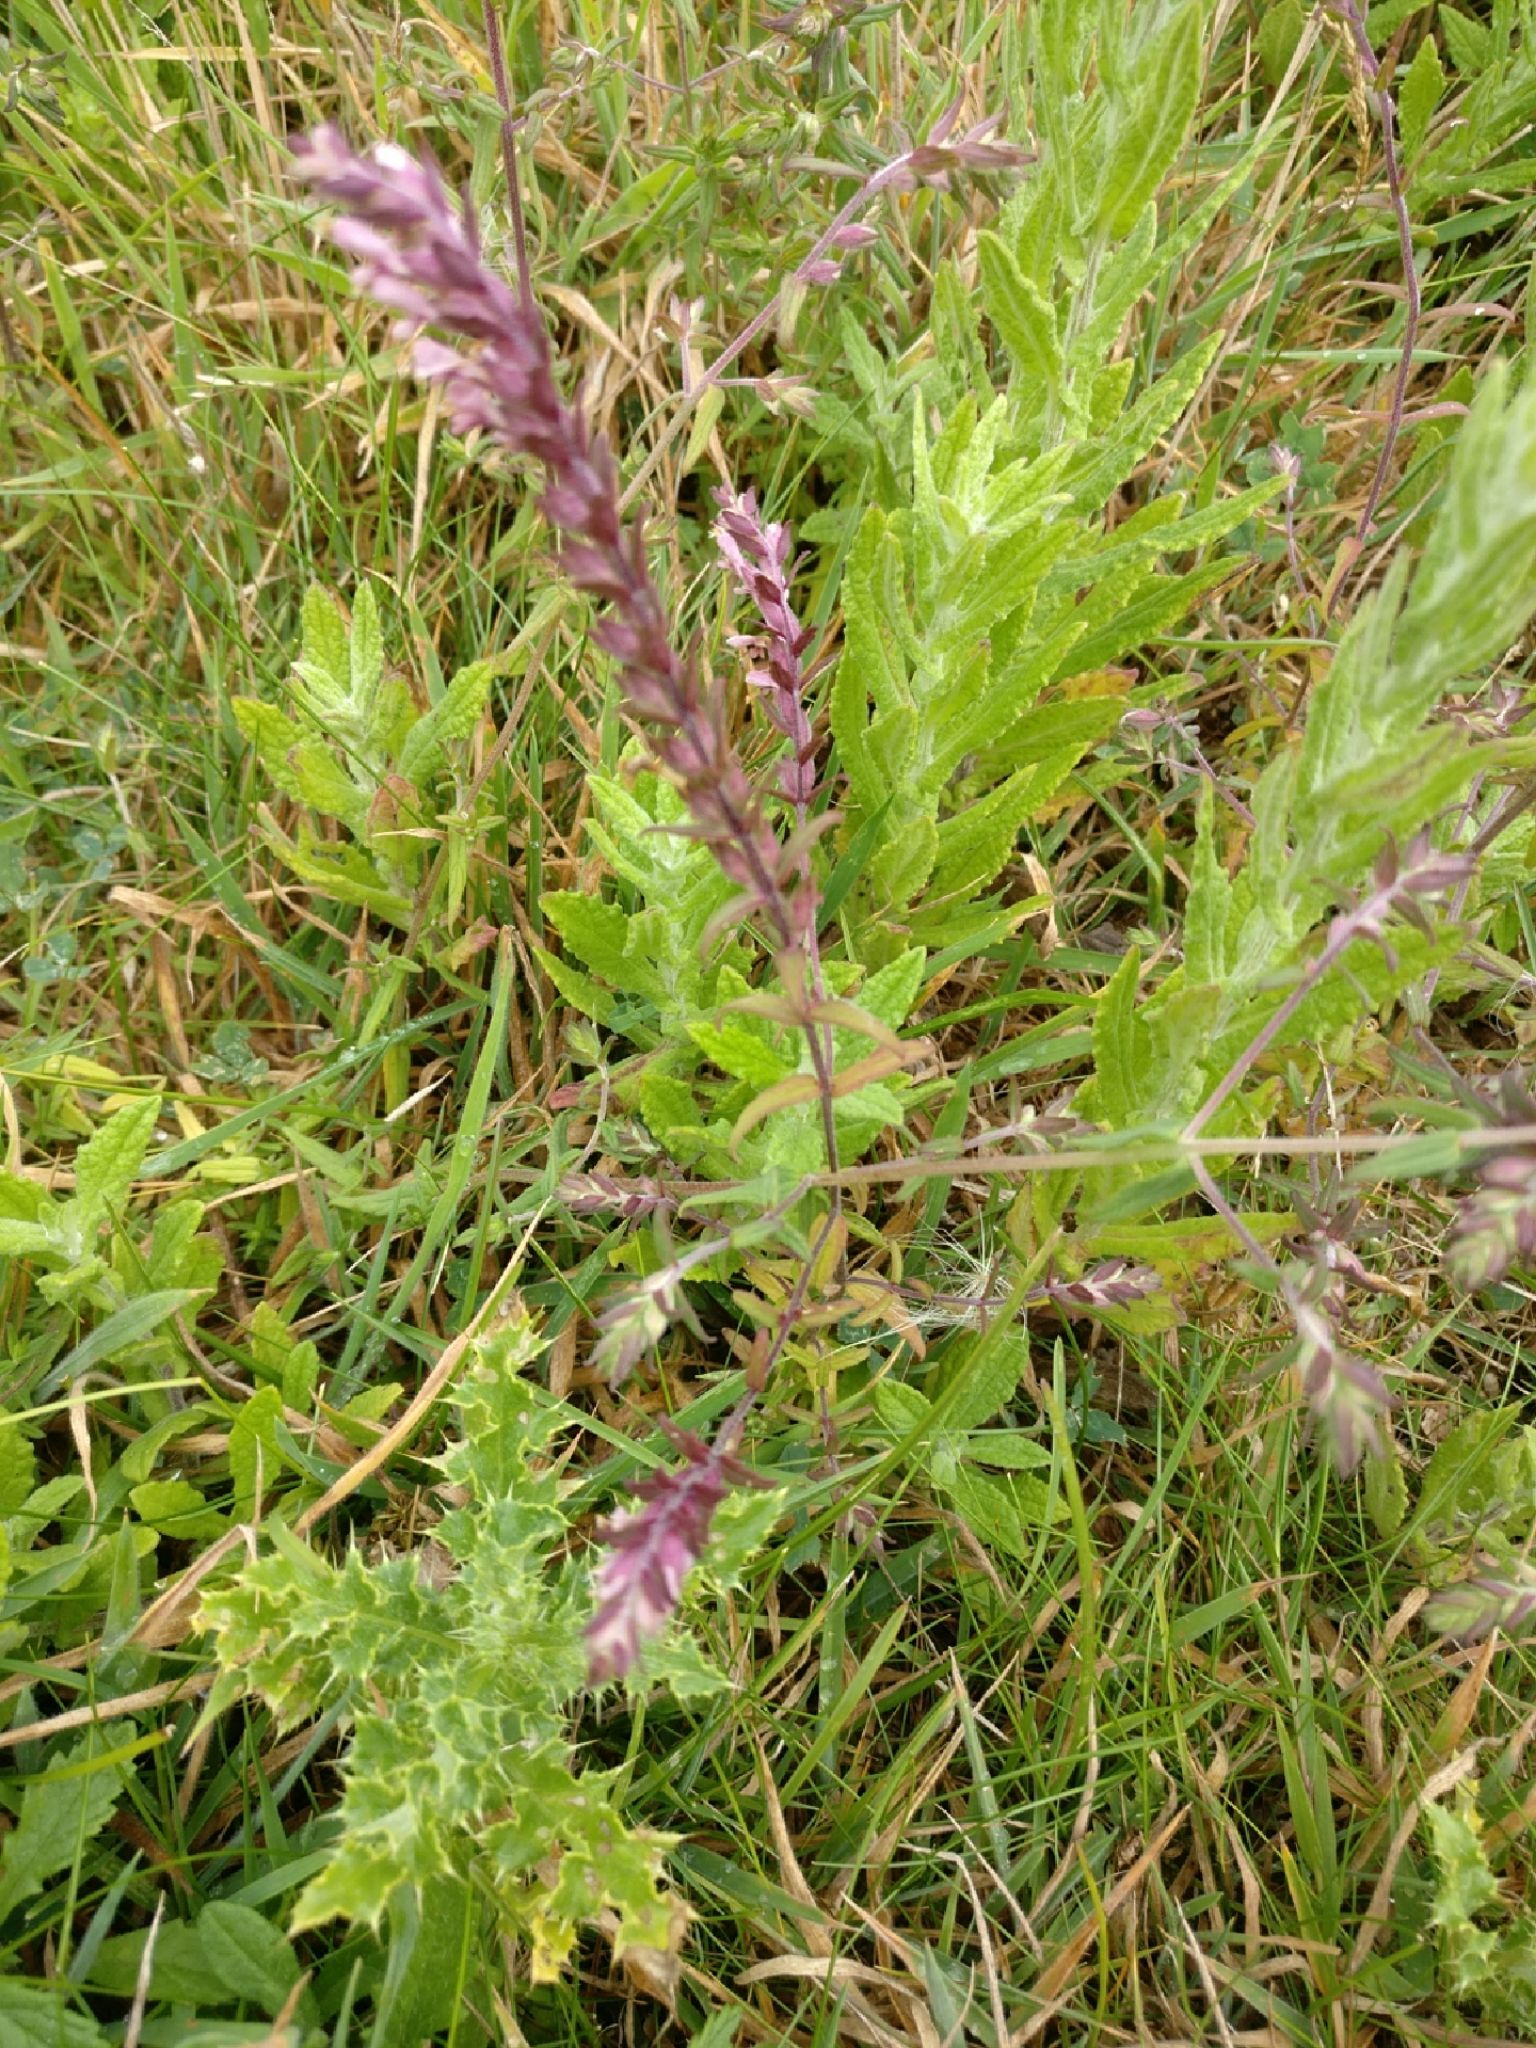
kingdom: Plantae
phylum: Tracheophyta
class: Magnoliopsida
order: Lamiales
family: Orobanchaceae
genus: Odontites
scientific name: Odontites vulgaris
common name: Broomrape
